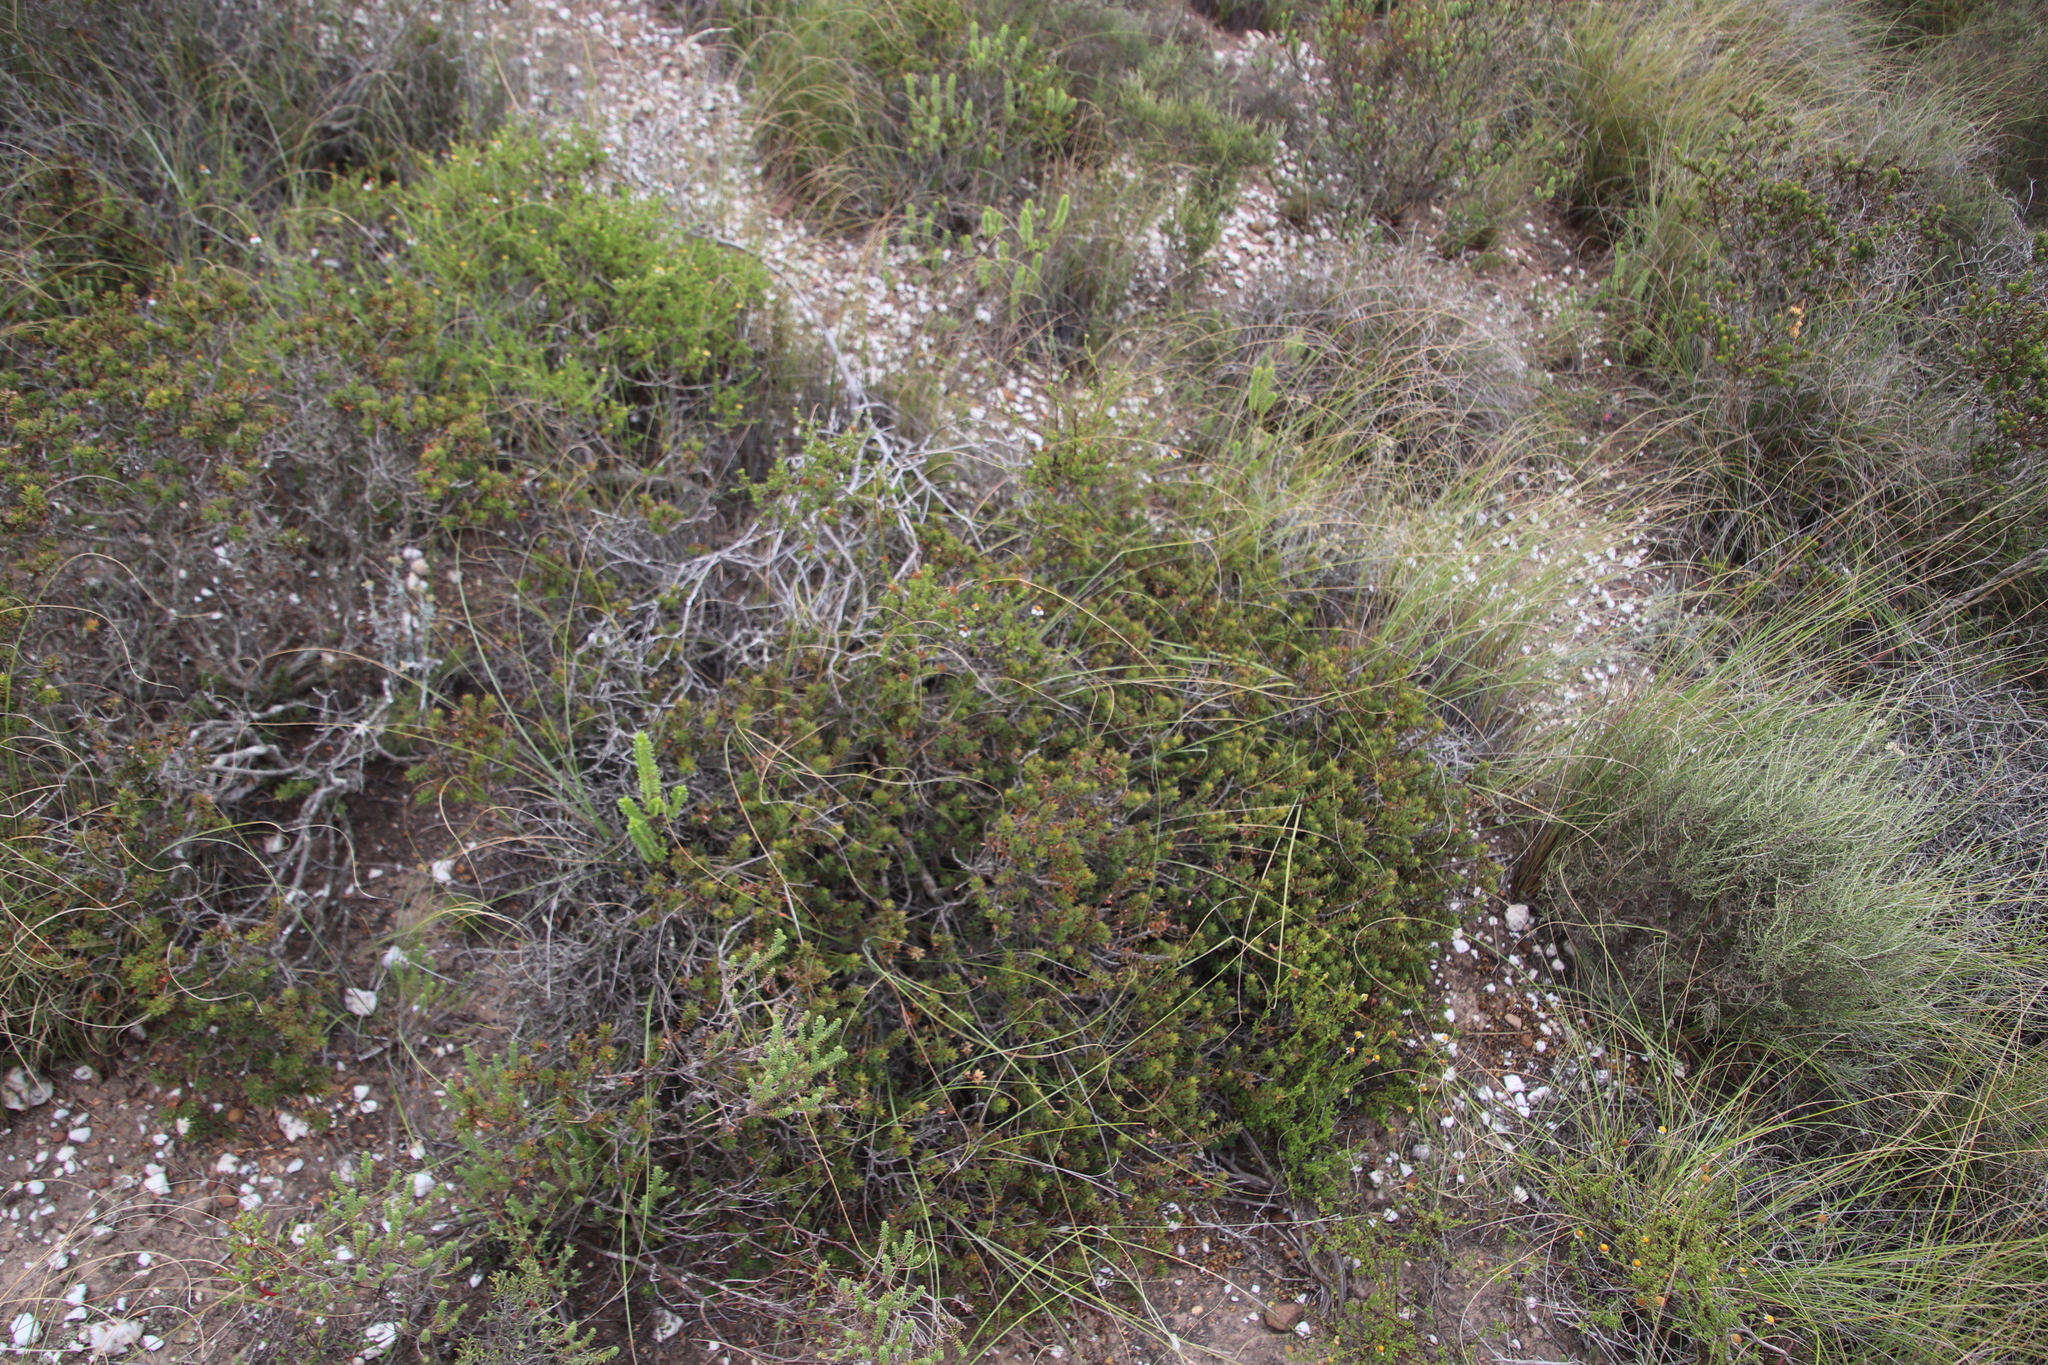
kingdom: Plantae
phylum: Tracheophyta
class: Magnoliopsida
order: Asterales
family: Asteraceae
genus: Cymbopappus
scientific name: Cymbopappus adenosolen
